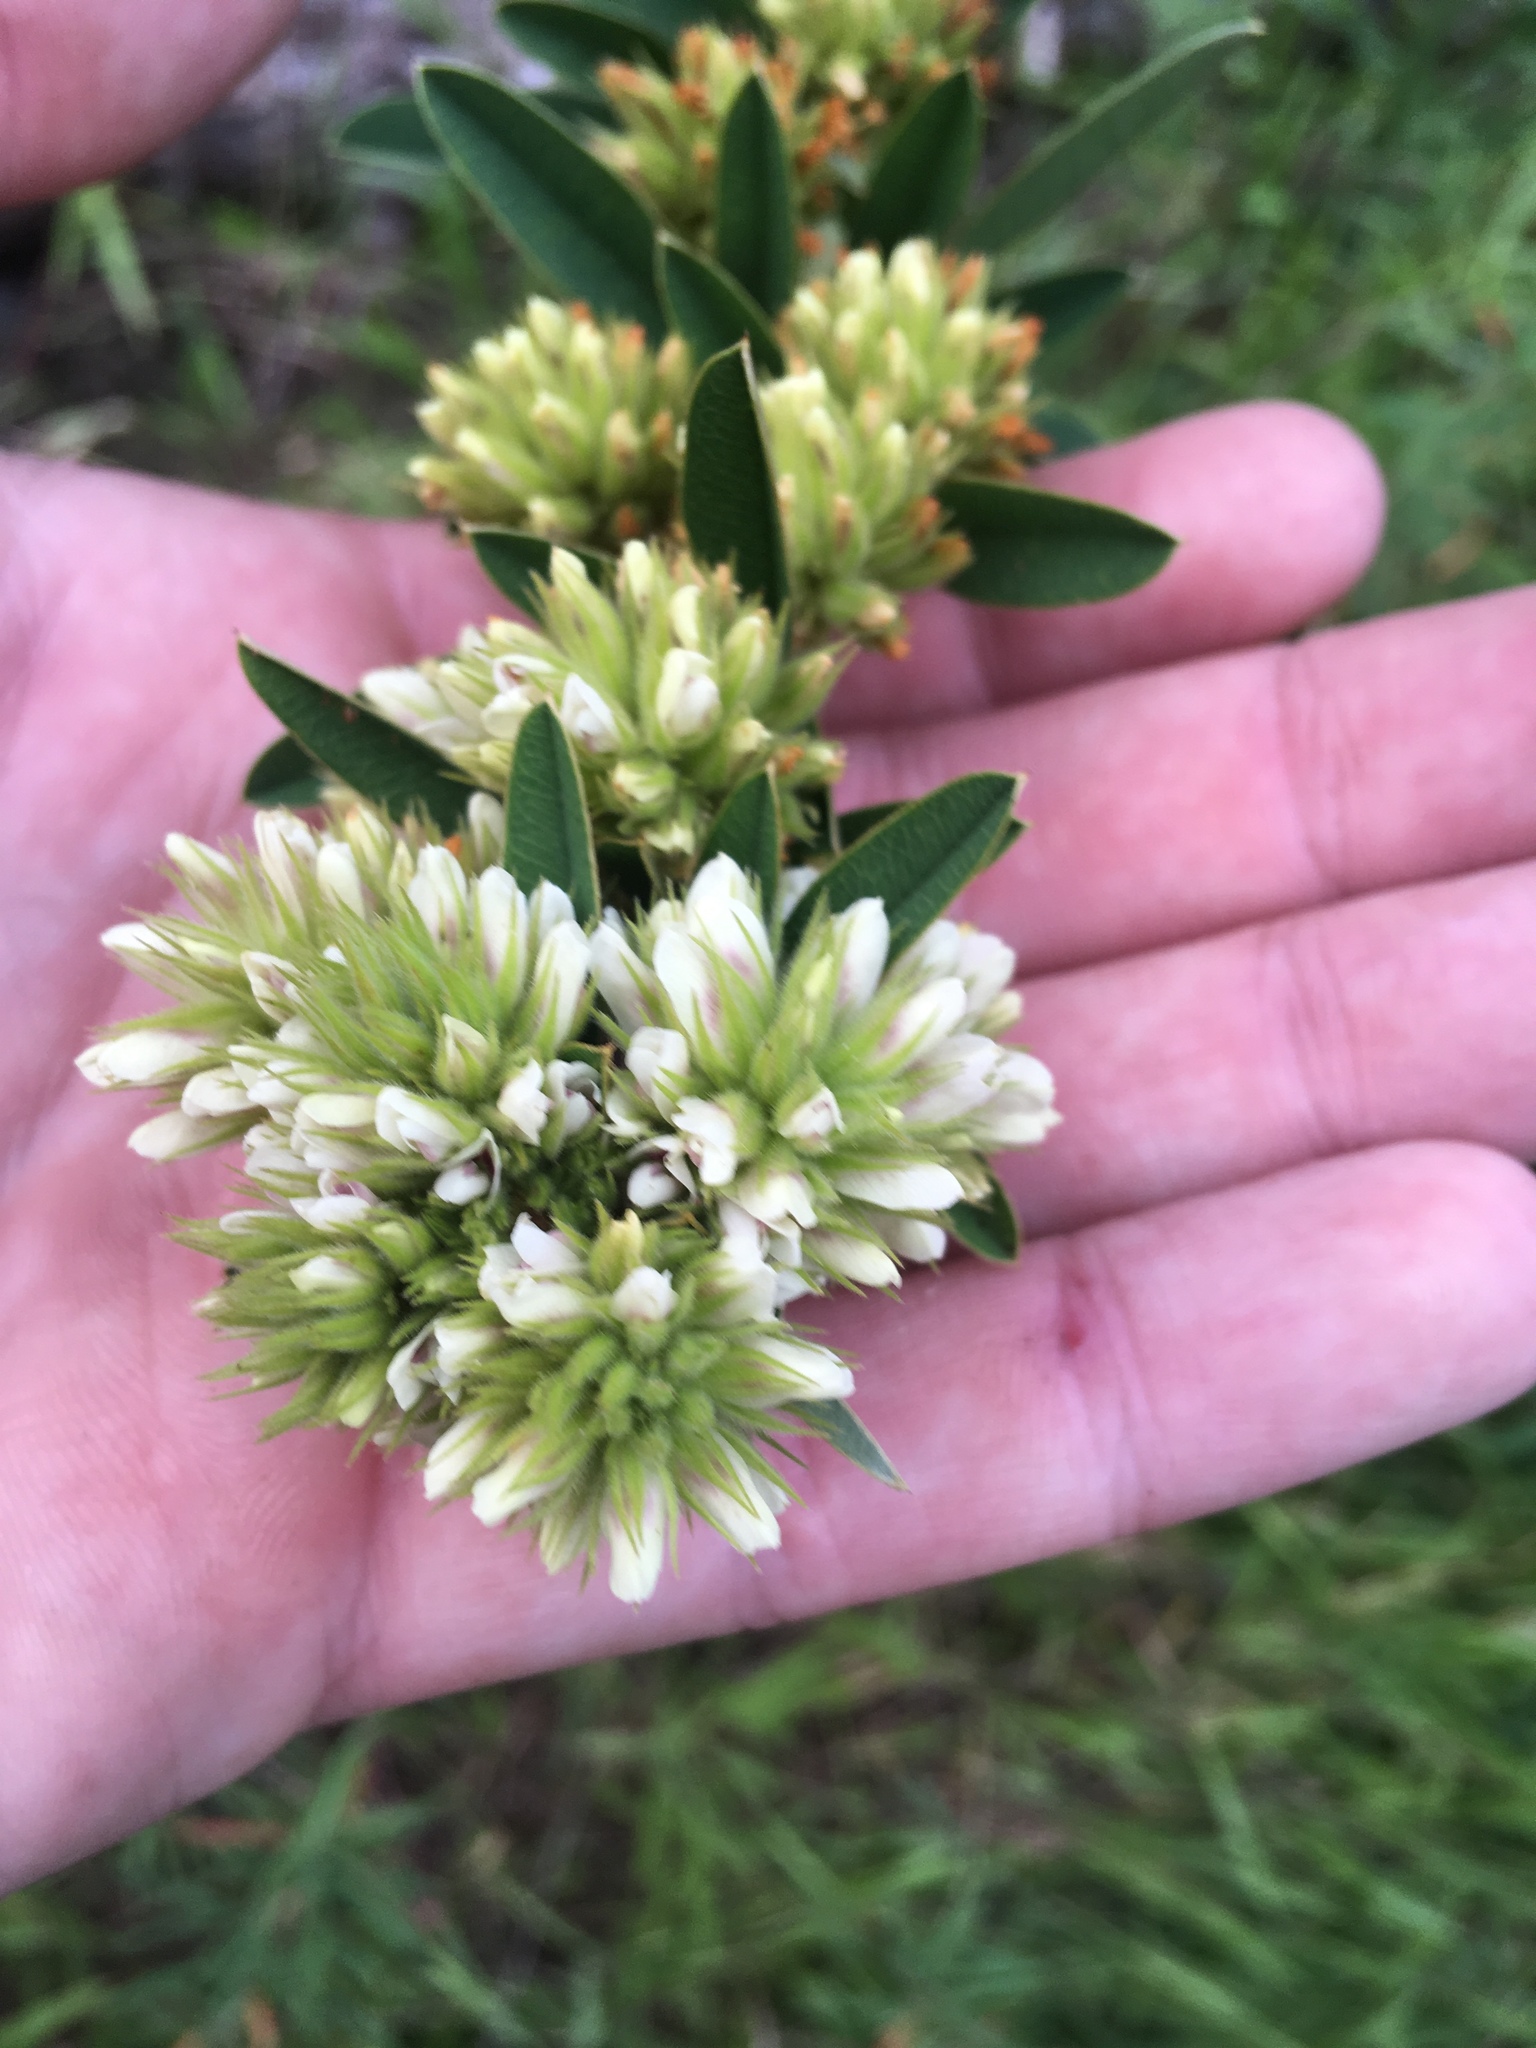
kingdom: Plantae
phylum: Tracheophyta
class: Magnoliopsida
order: Fabales
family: Fabaceae
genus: Lespedeza
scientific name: Lespedeza capitata
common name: Dusty clover
